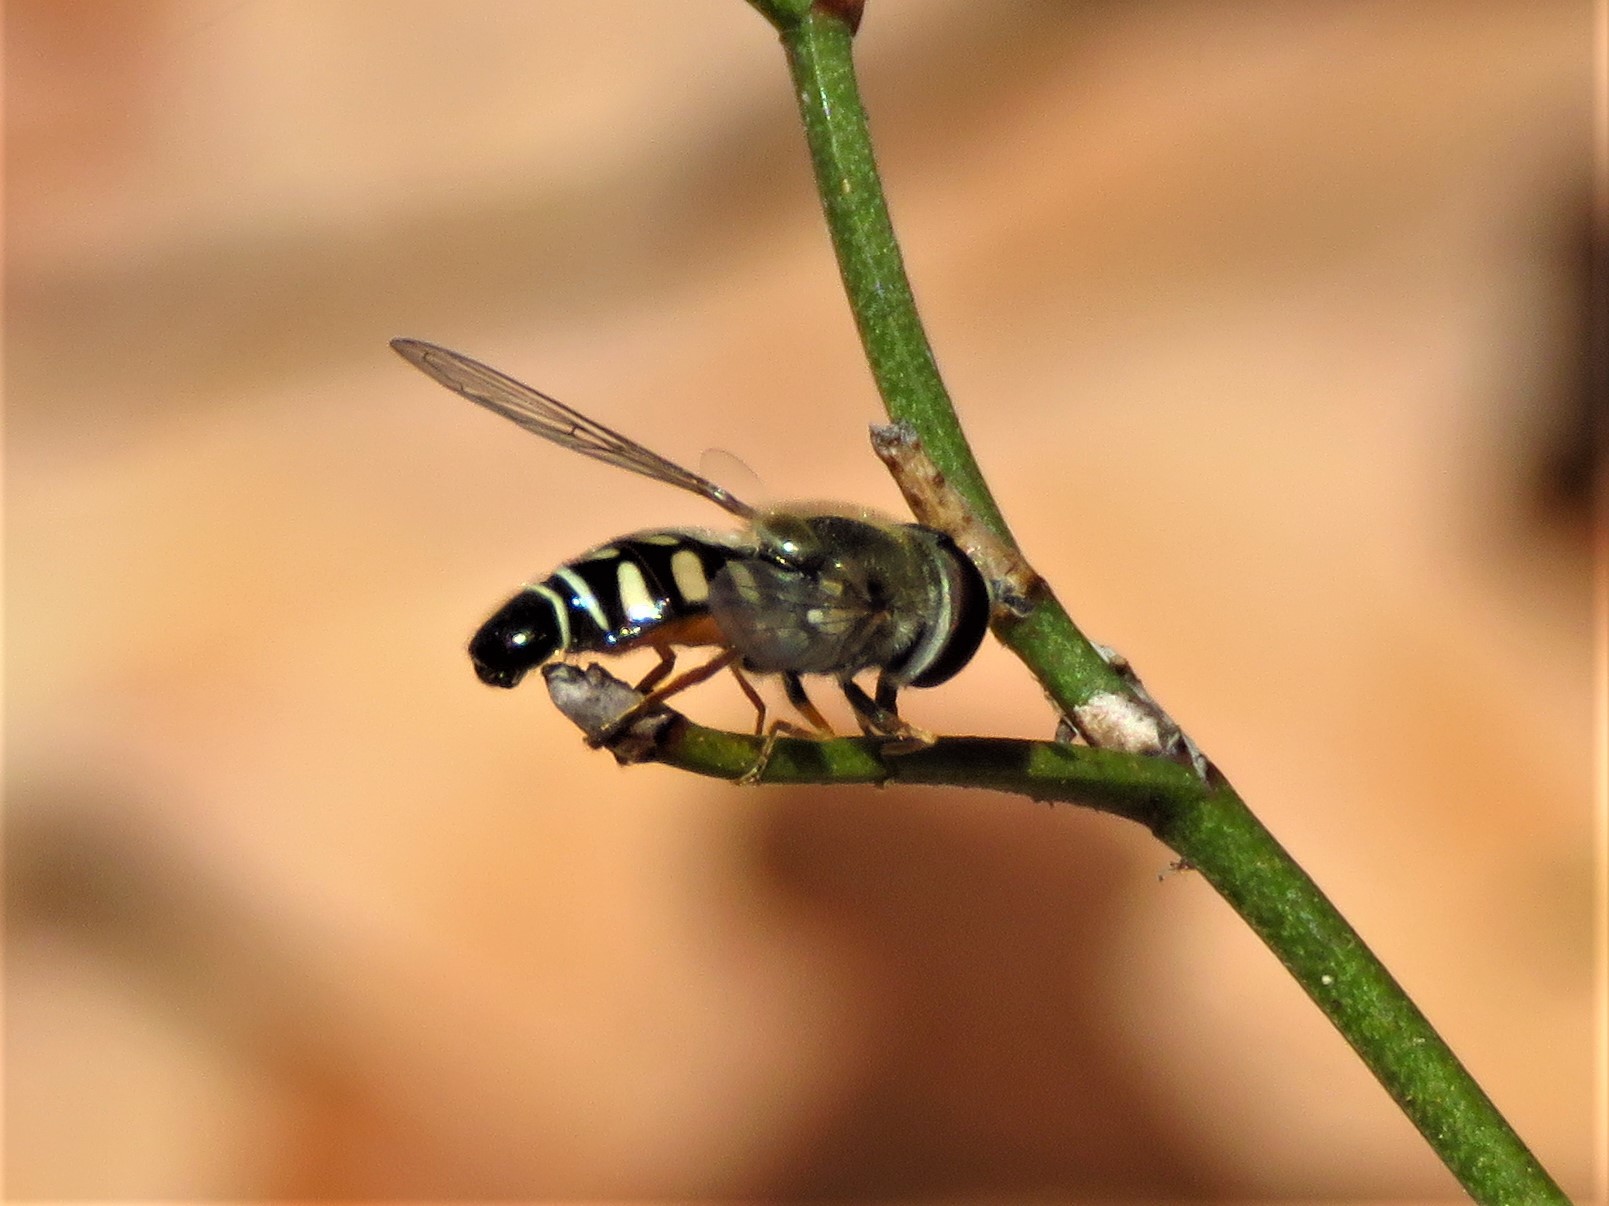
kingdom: Animalia
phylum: Arthropoda
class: Insecta
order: Diptera
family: Syrphidae
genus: Eupeodes
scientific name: Eupeodes volucris
